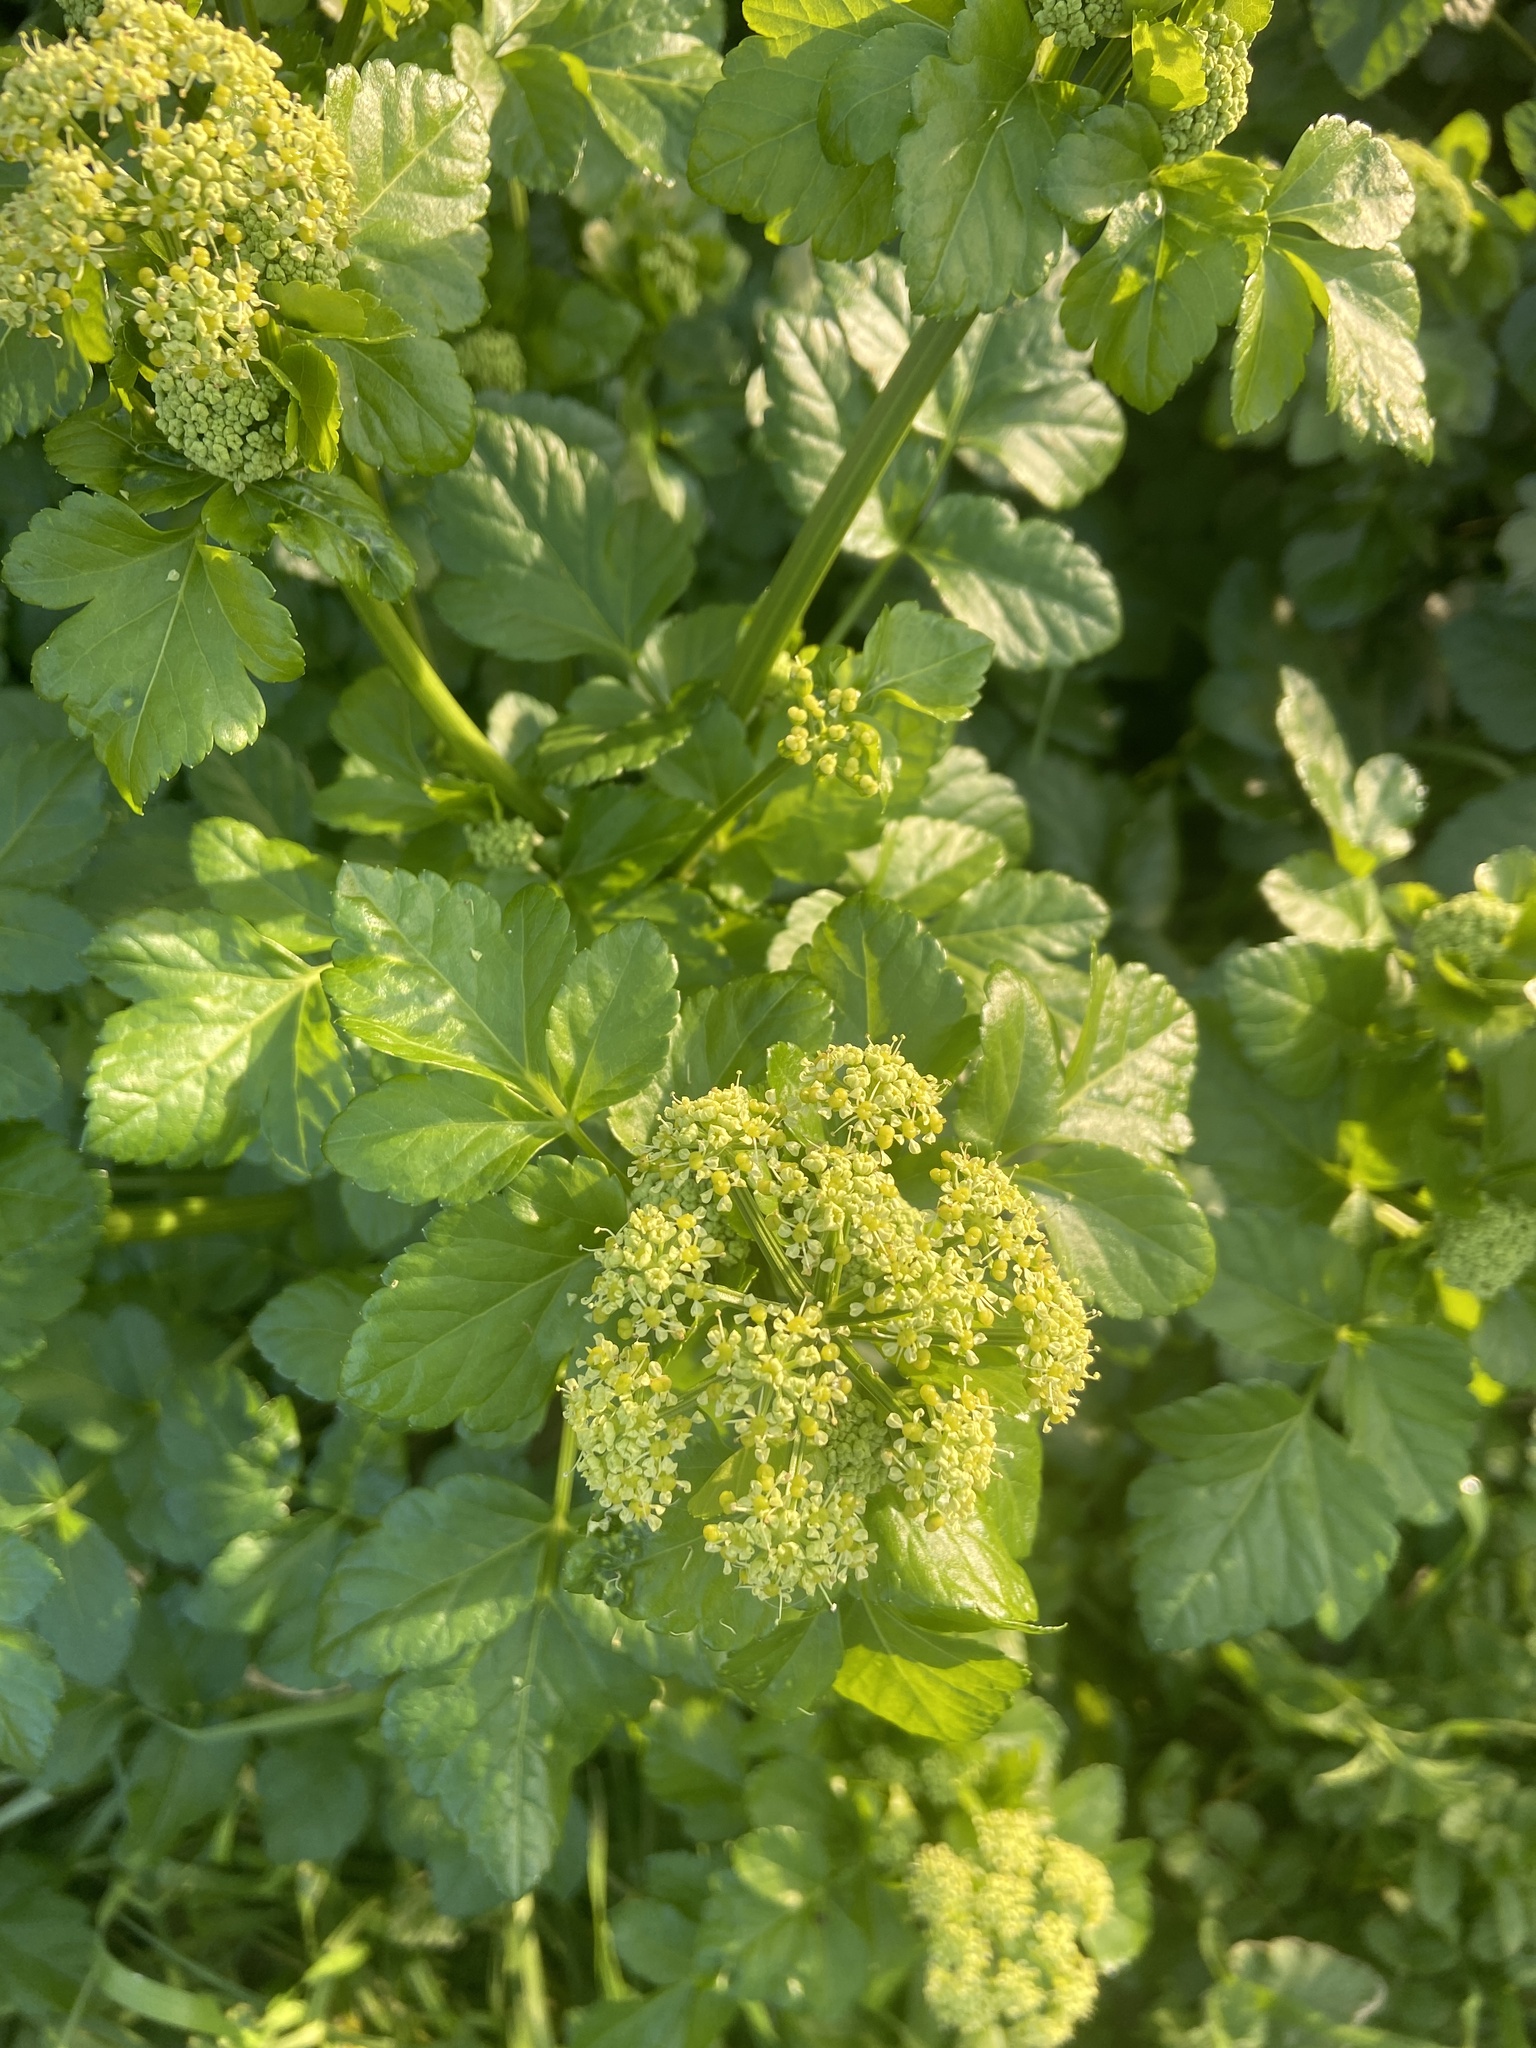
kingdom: Plantae
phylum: Tracheophyta
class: Magnoliopsida
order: Apiales
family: Apiaceae
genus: Smyrnium
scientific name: Smyrnium olusatrum
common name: Alexanders
